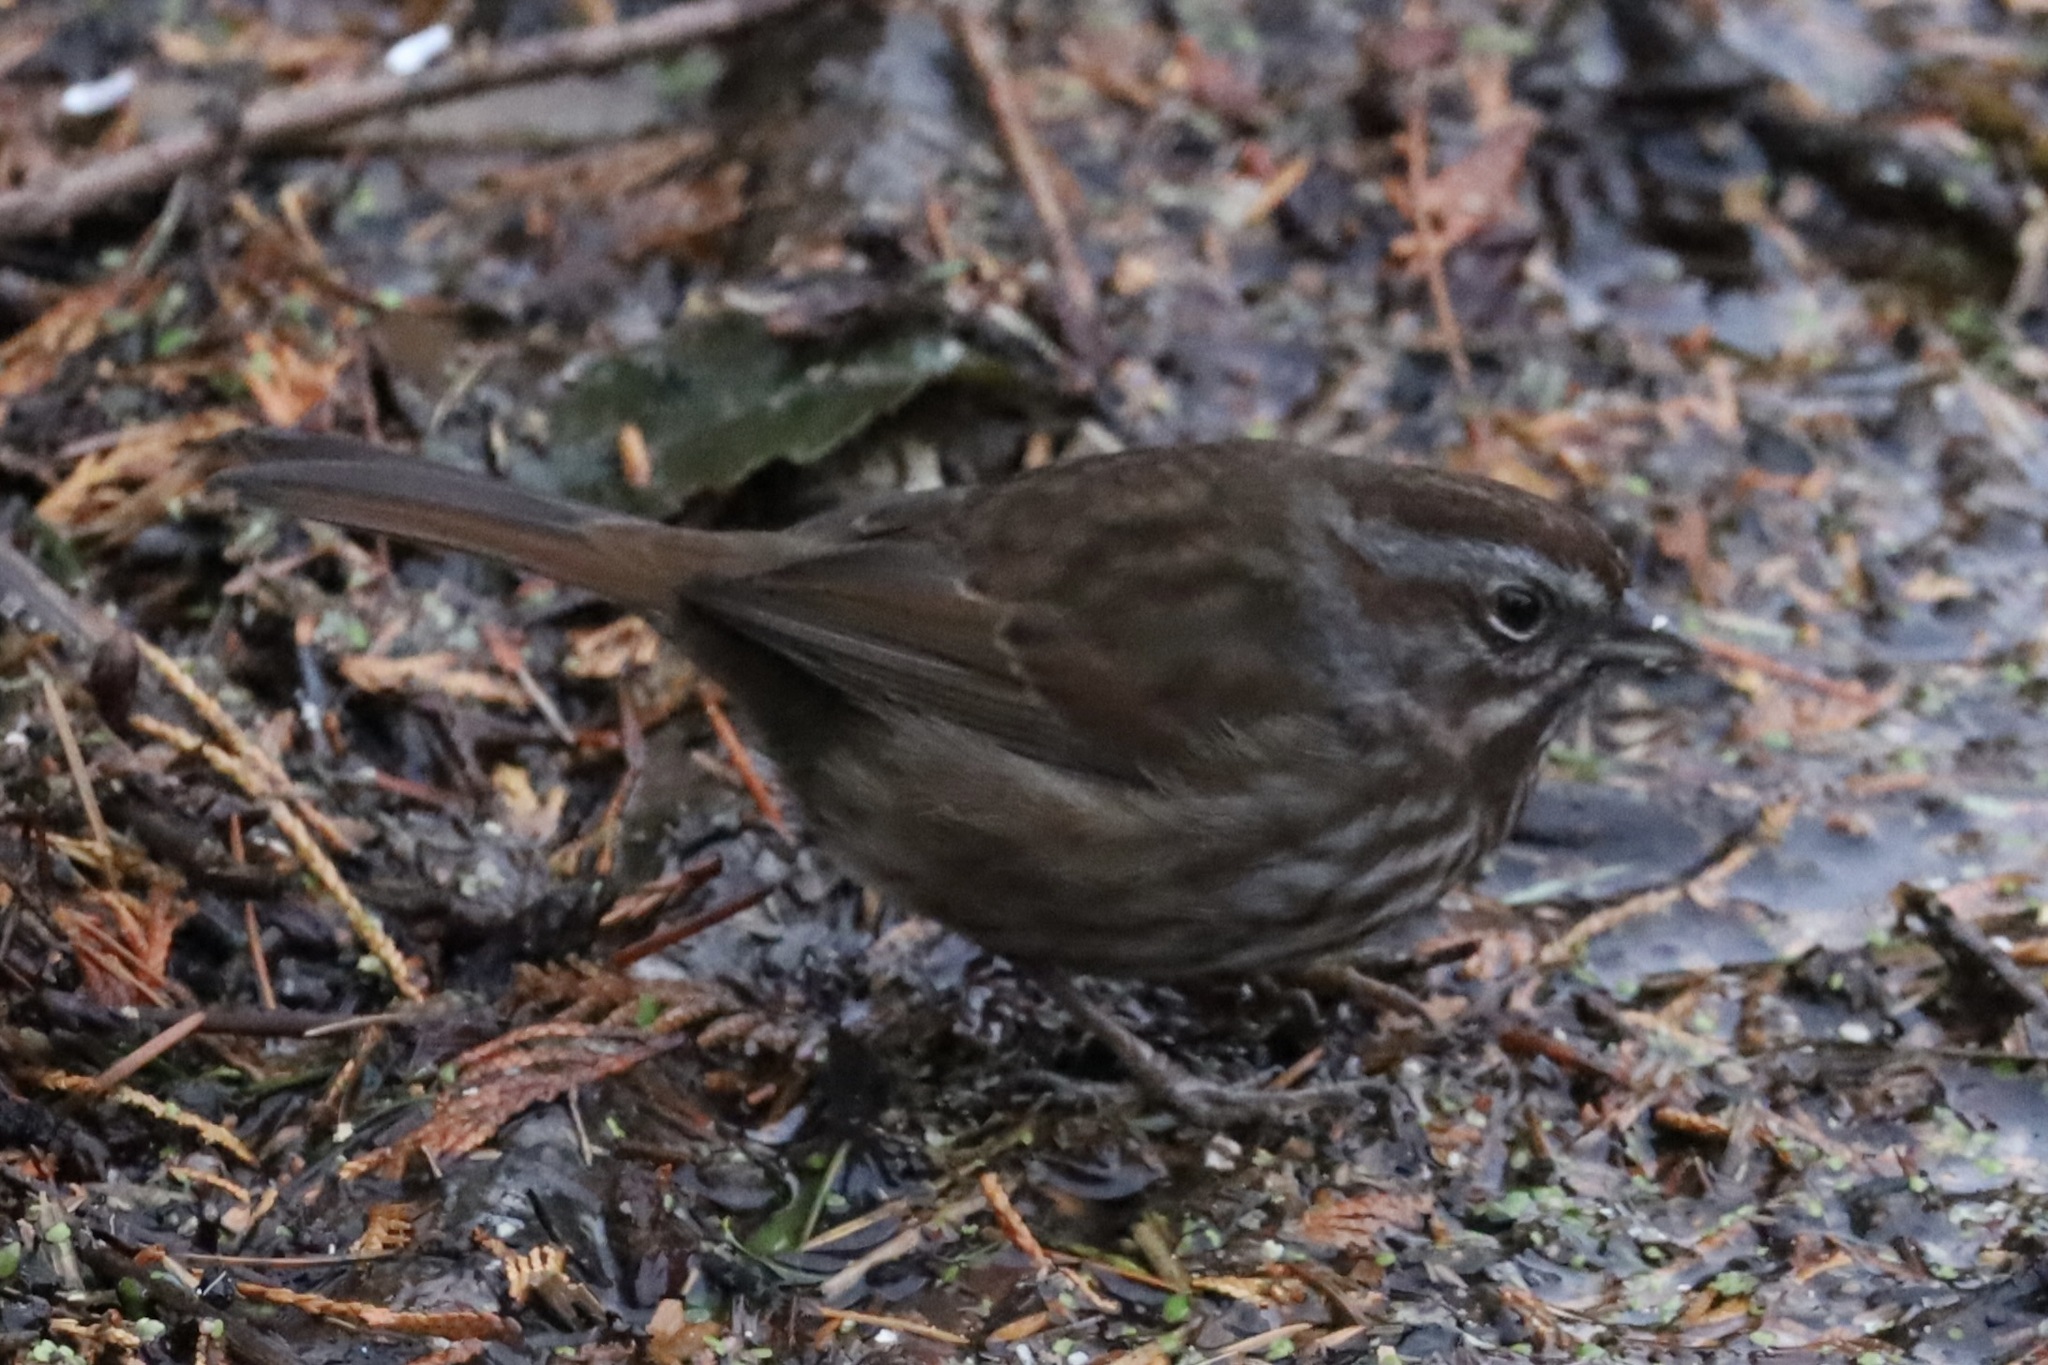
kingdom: Animalia
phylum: Chordata
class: Aves
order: Passeriformes
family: Passerellidae
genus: Melospiza
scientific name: Melospiza melodia
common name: Song sparrow
